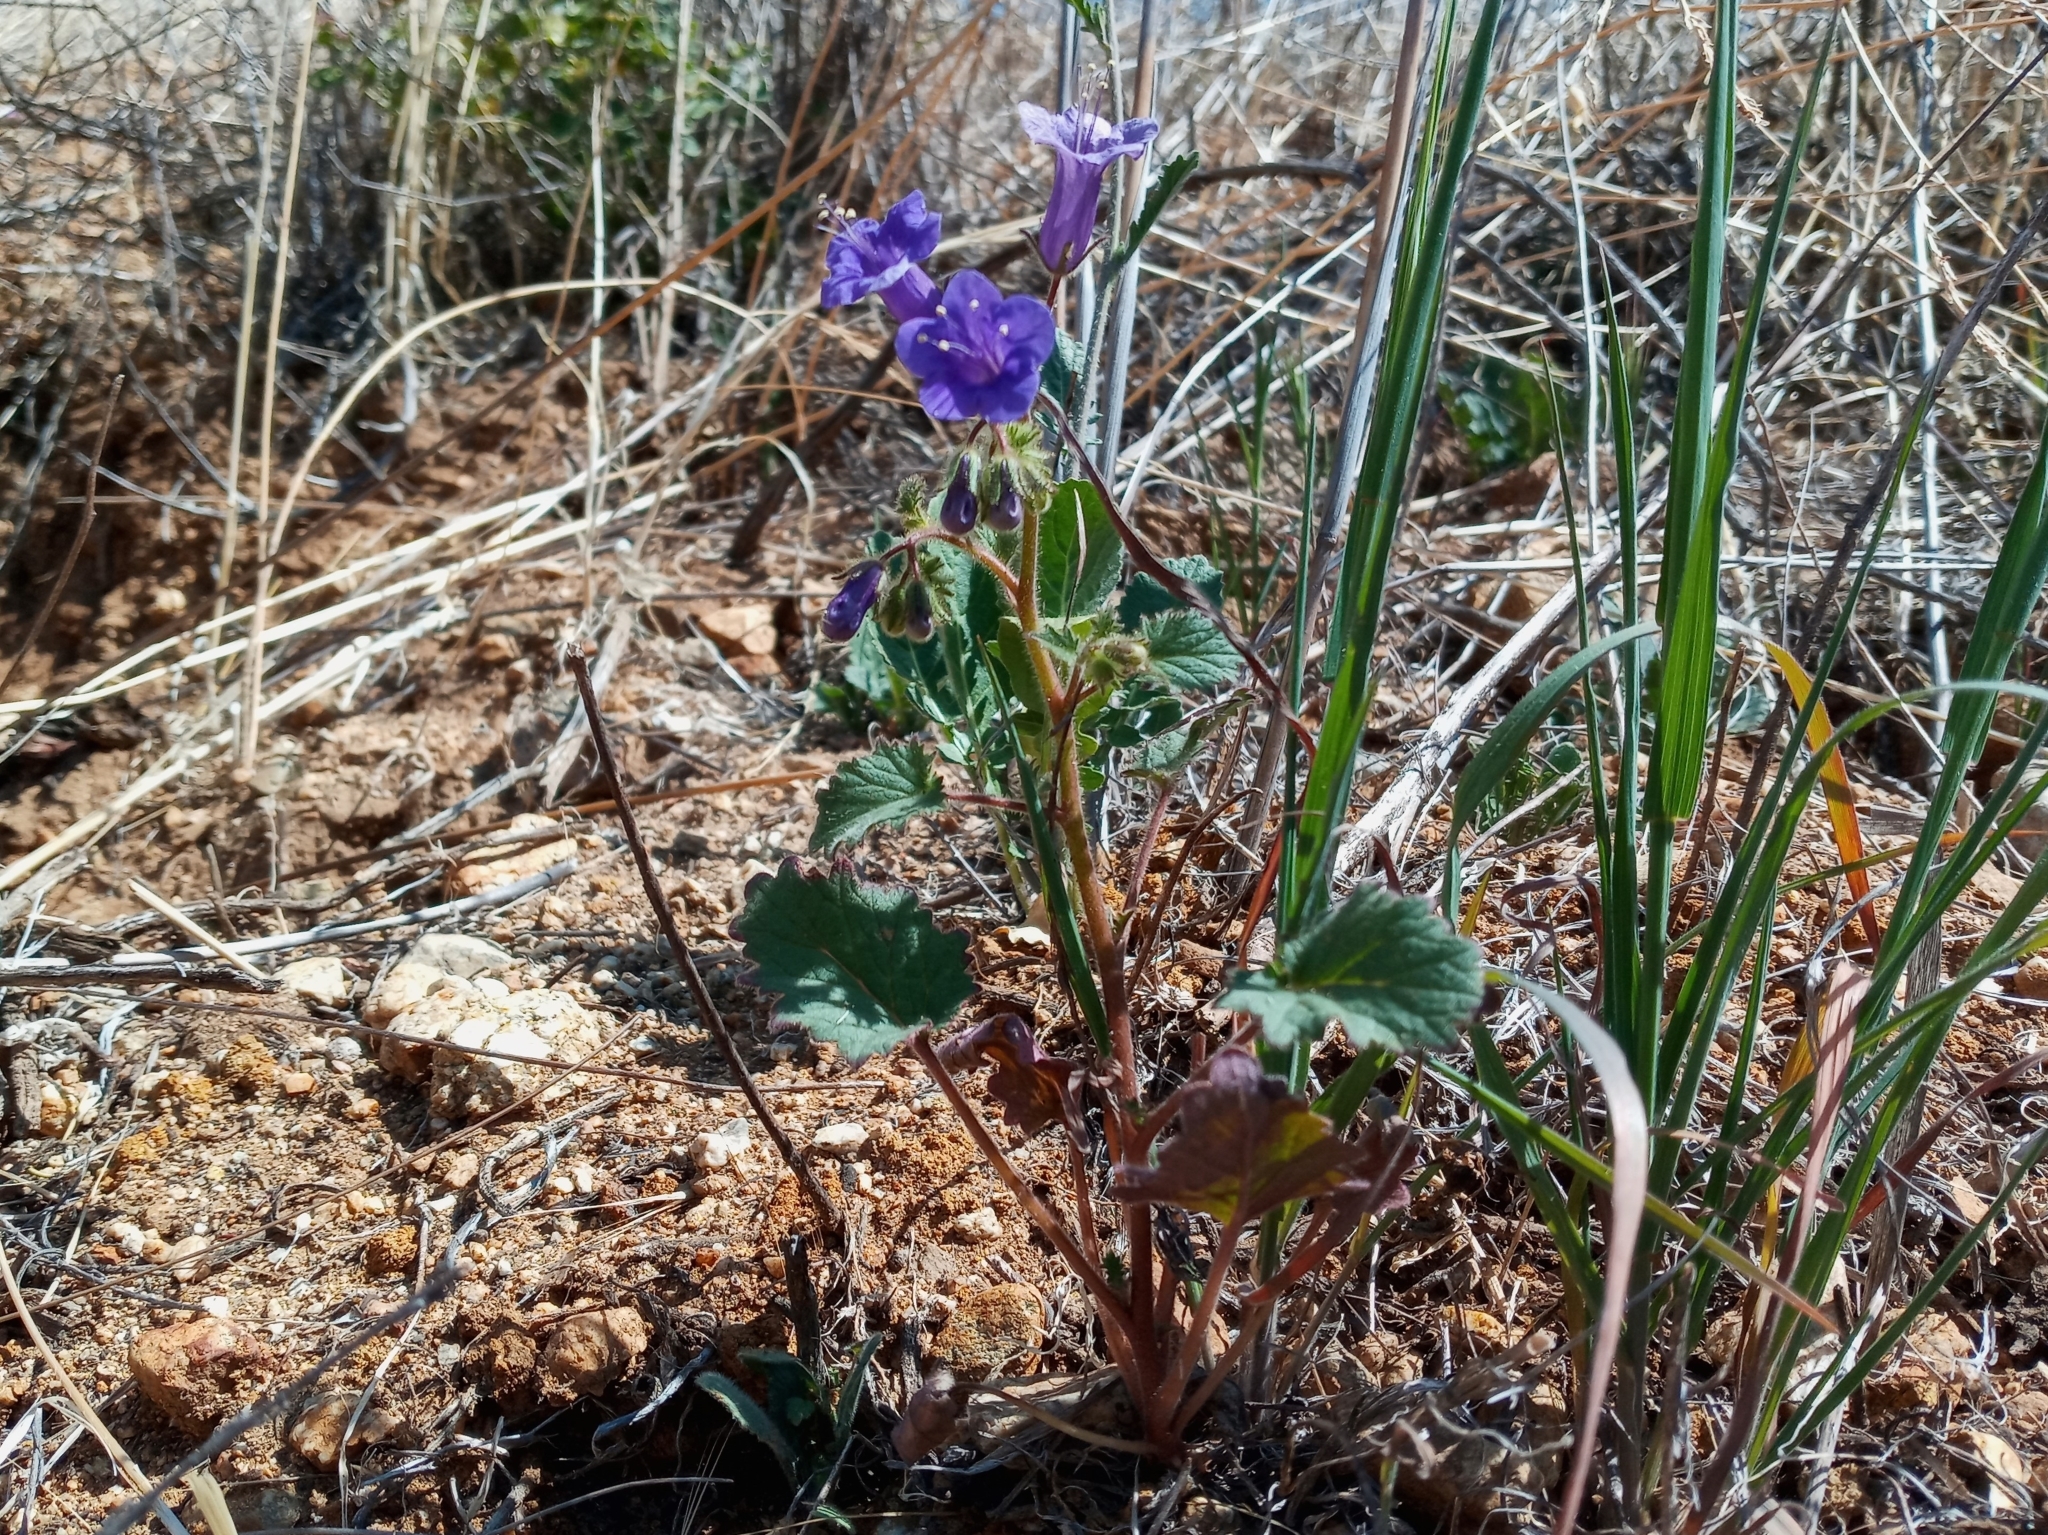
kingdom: Plantae
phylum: Tracheophyta
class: Magnoliopsida
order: Boraginales
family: Hydrophyllaceae
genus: Phacelia
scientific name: Phacelia minor
